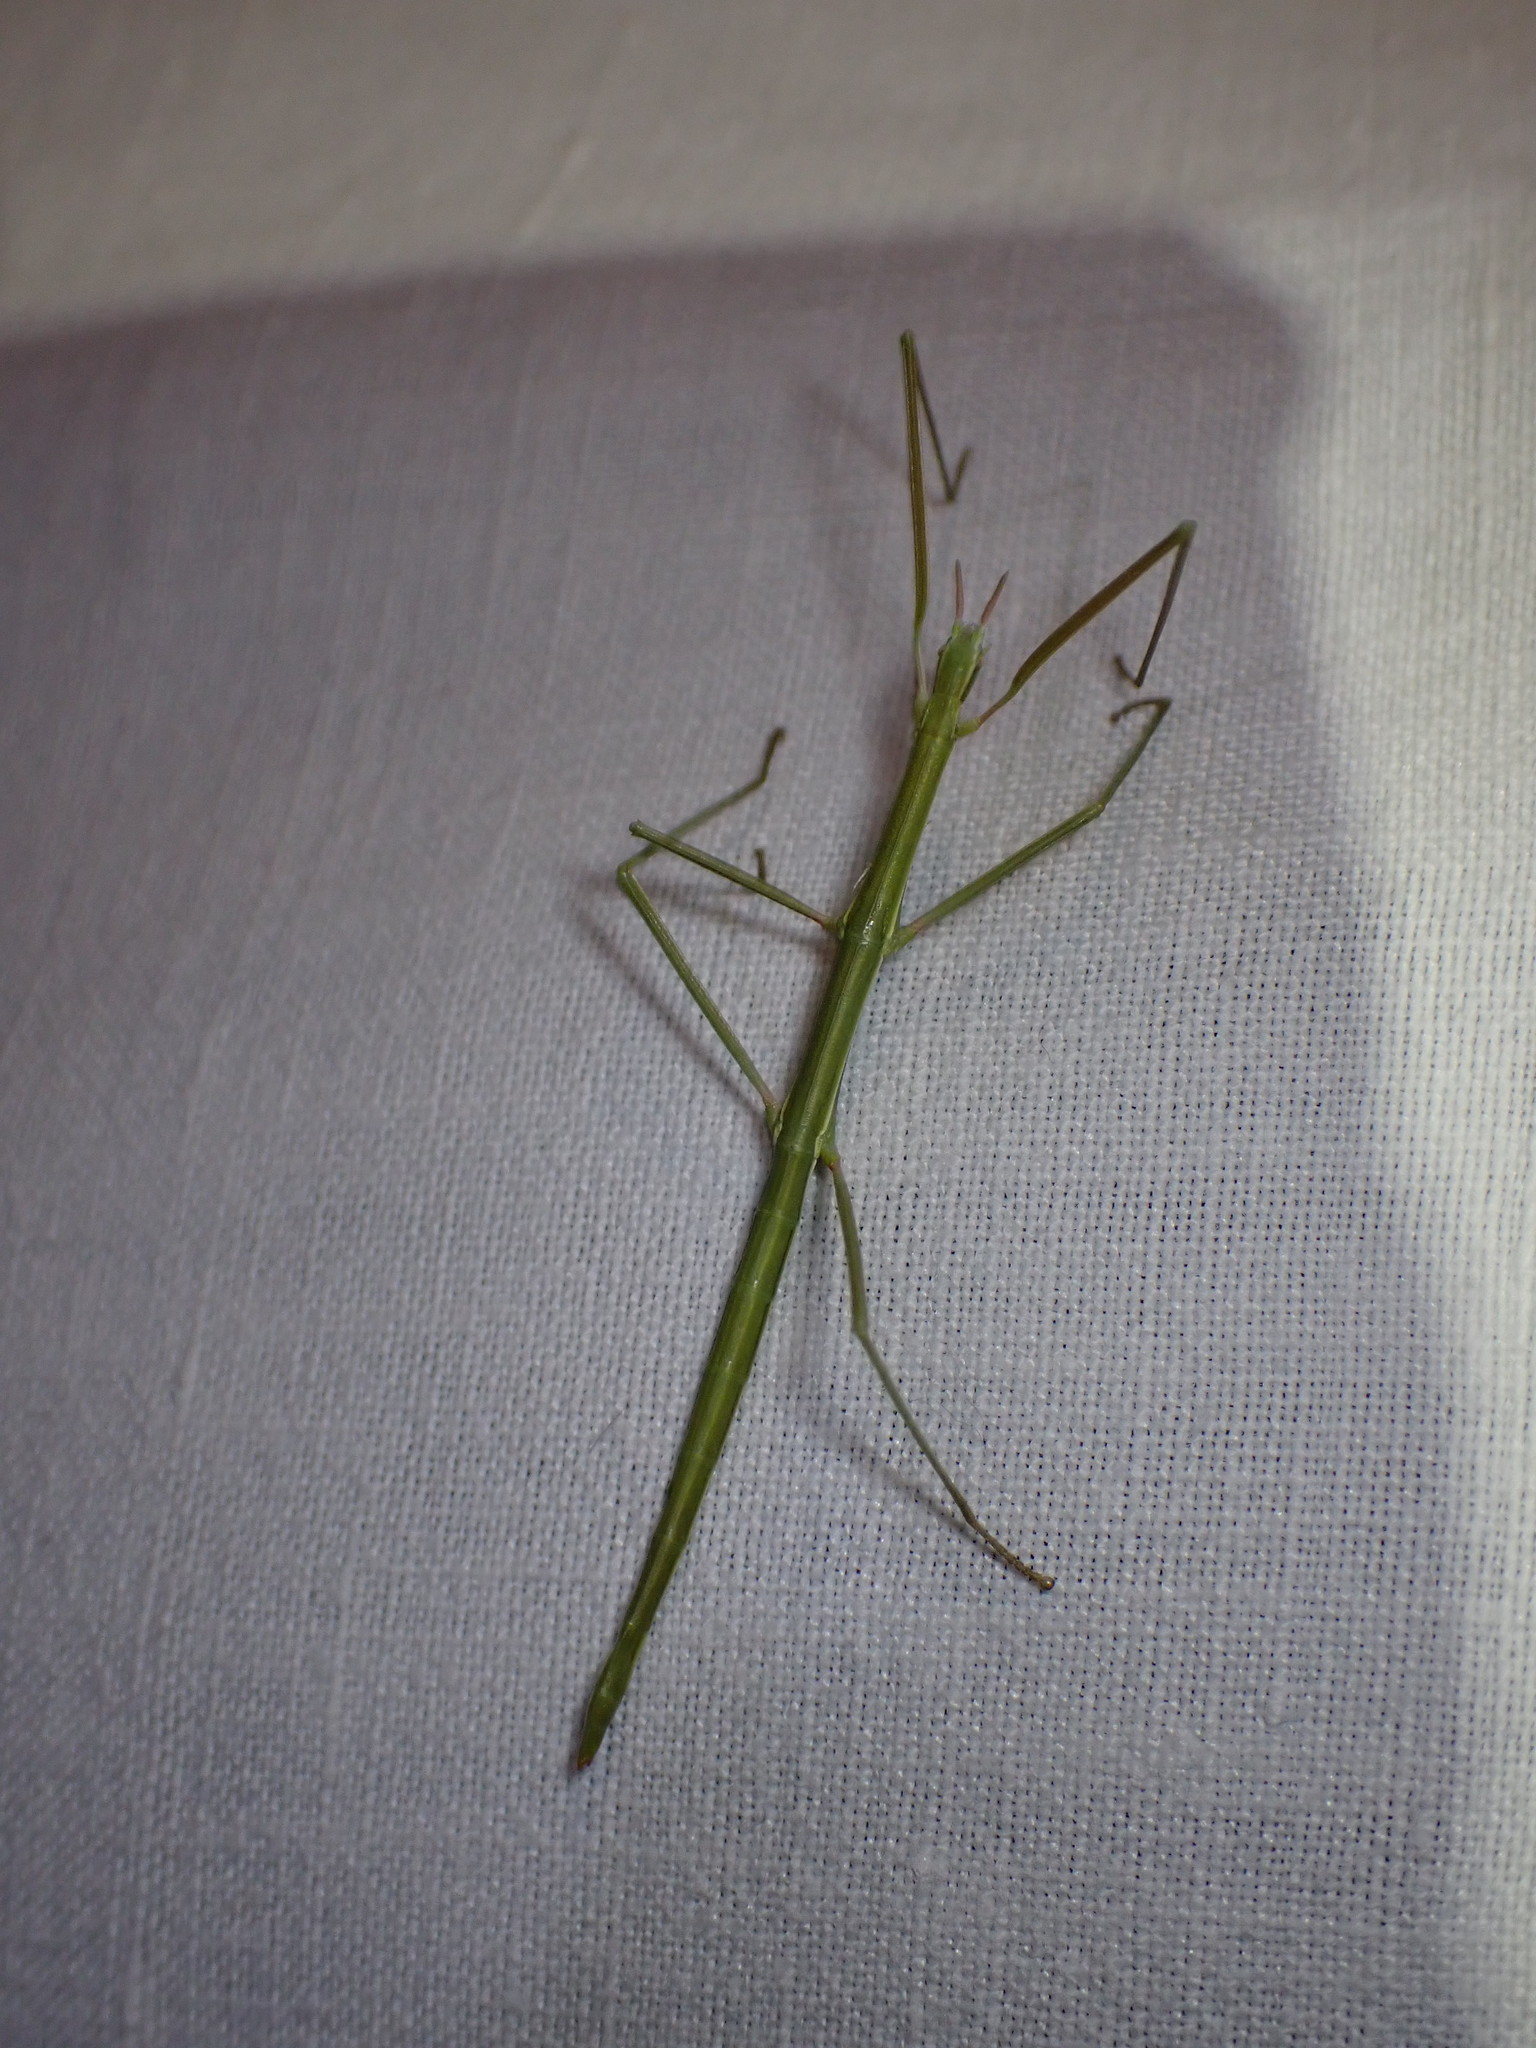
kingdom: Animalia
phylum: Arthropoda
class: Insecta
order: Phasmida
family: Bacillidae
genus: Pijnackeria
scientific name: Pijnackeria masettii
